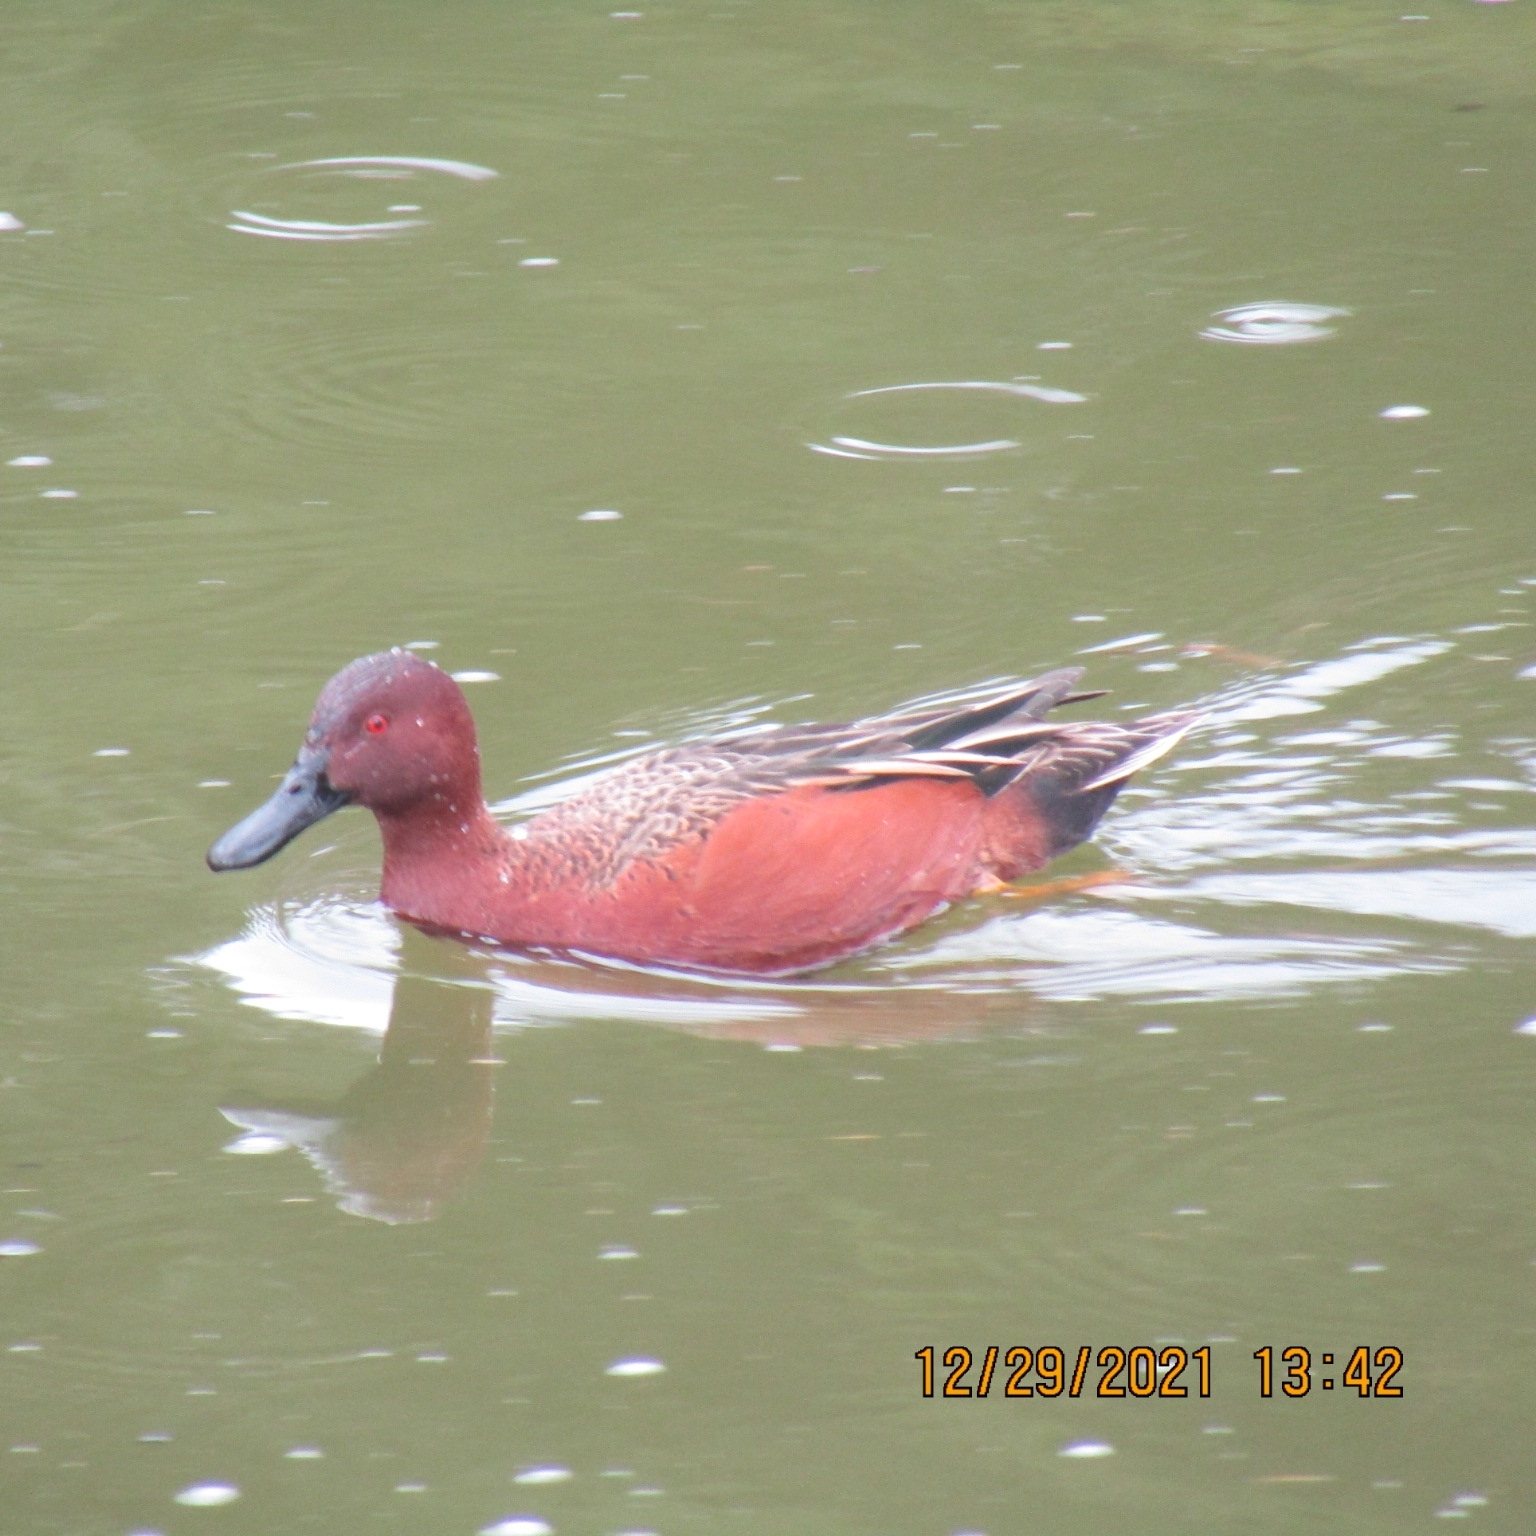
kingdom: Animalia
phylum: Chordata
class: Aves
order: Anseriformes
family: Anatidae
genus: Spatula
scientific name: Spatula cyanoptera
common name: Cinnamon teal
